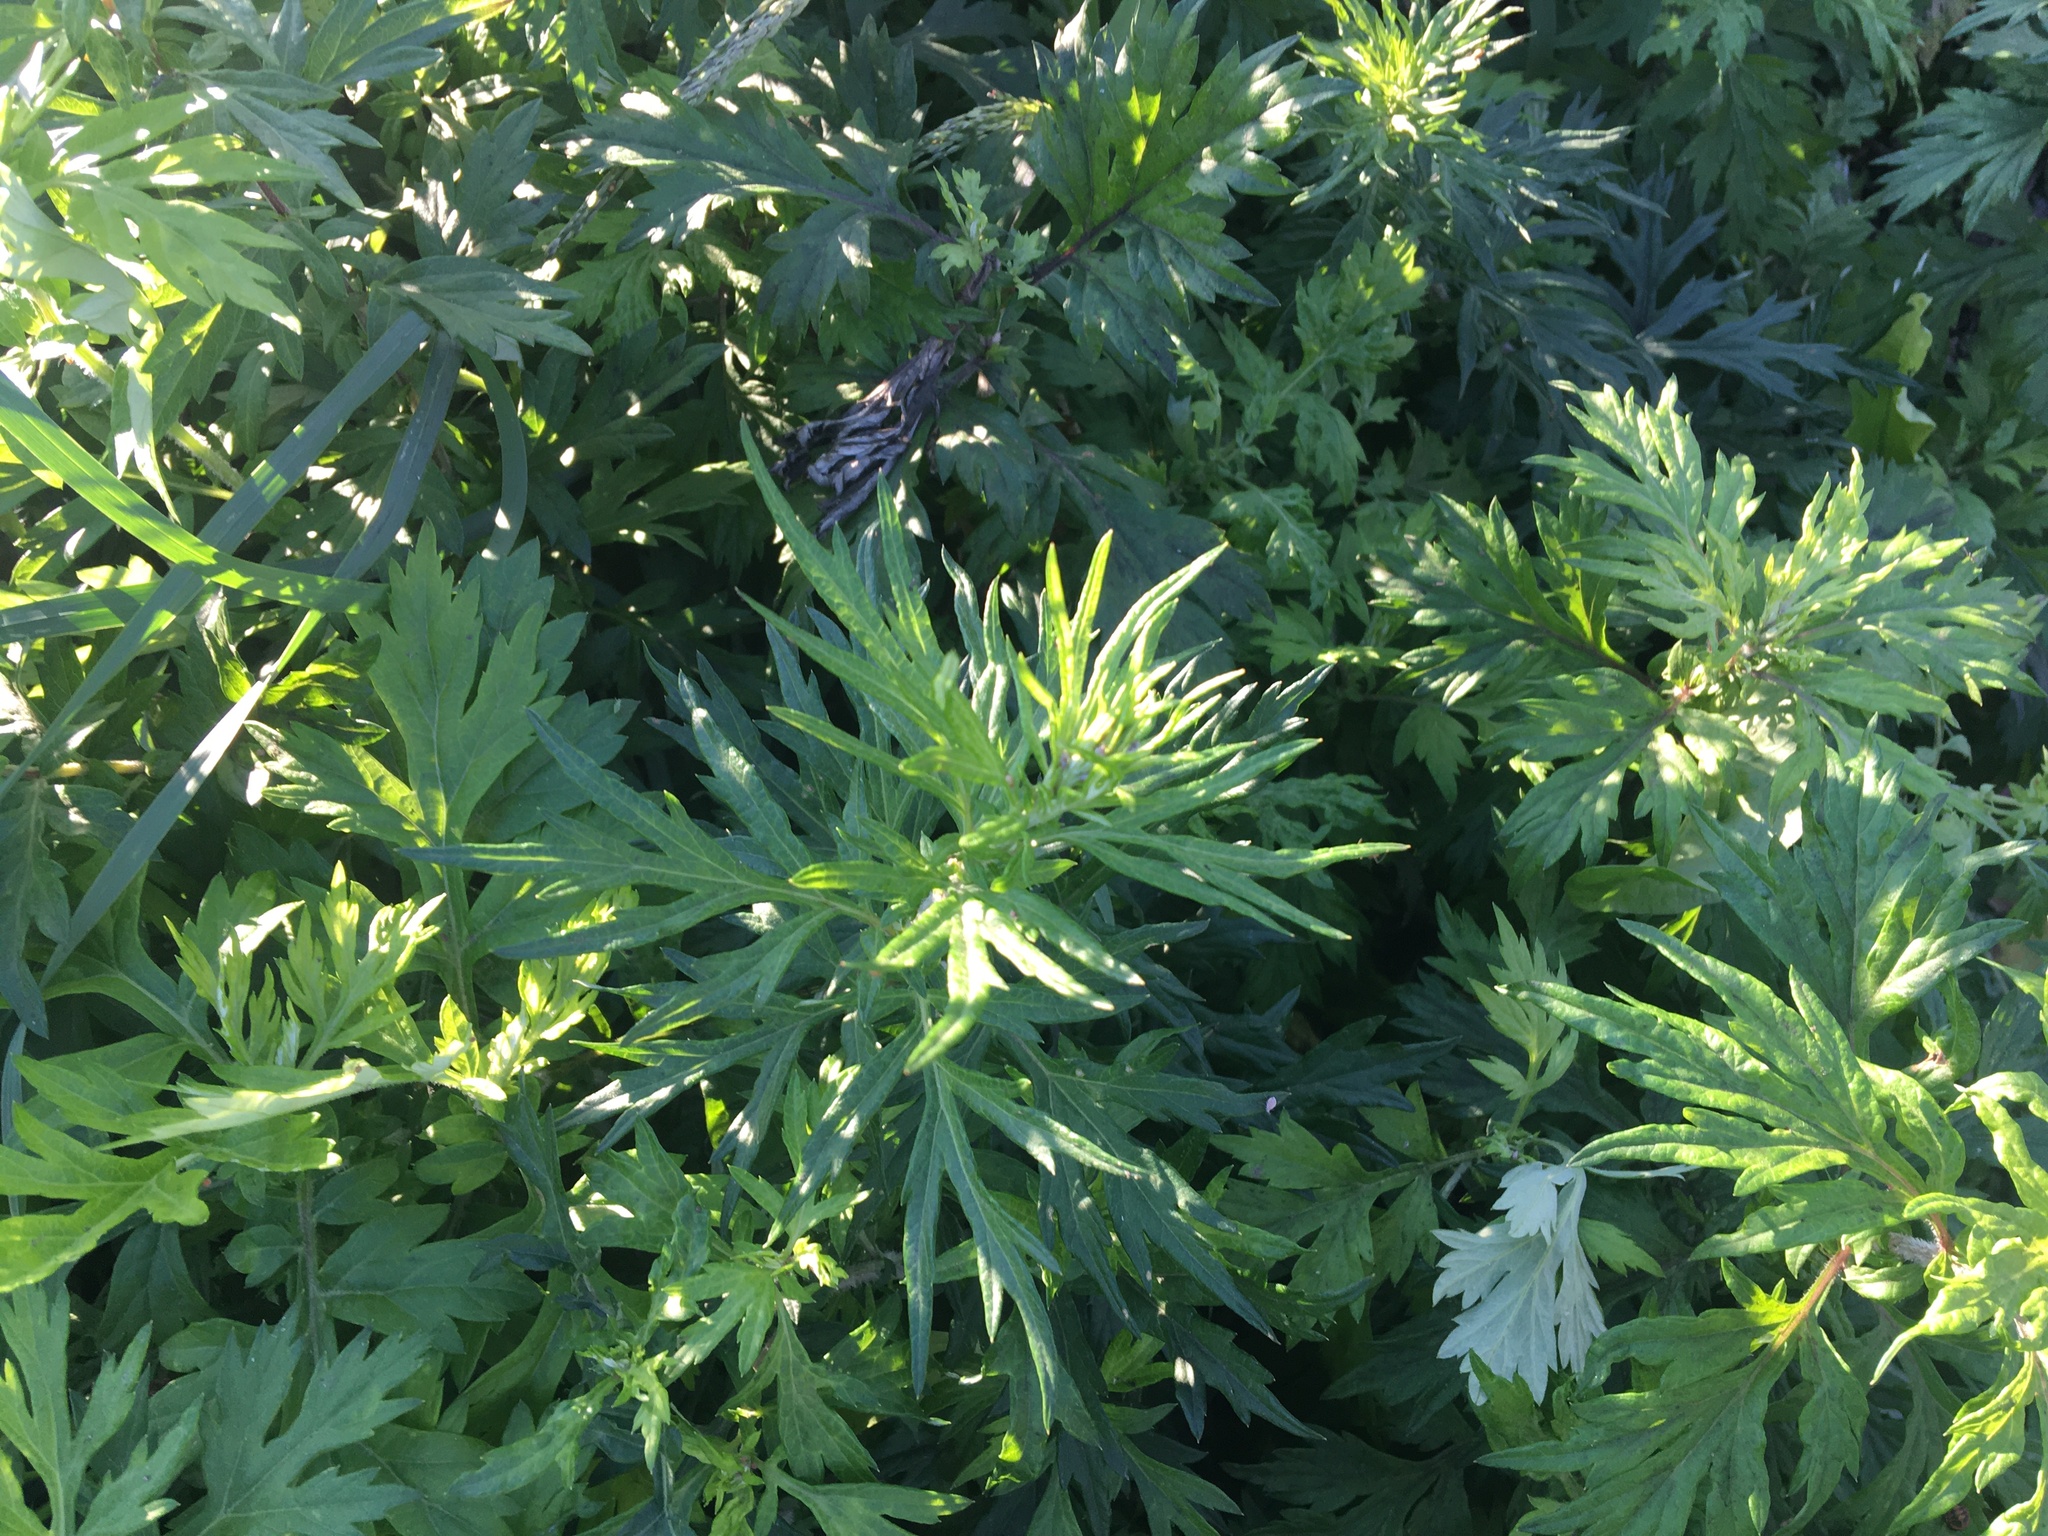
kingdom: Plantae
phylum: Tracheophyta
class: Magnoliopsida
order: Asterales
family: Asteraceae
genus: Artemisia
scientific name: Artemisia vulgaris
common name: Mugwort
